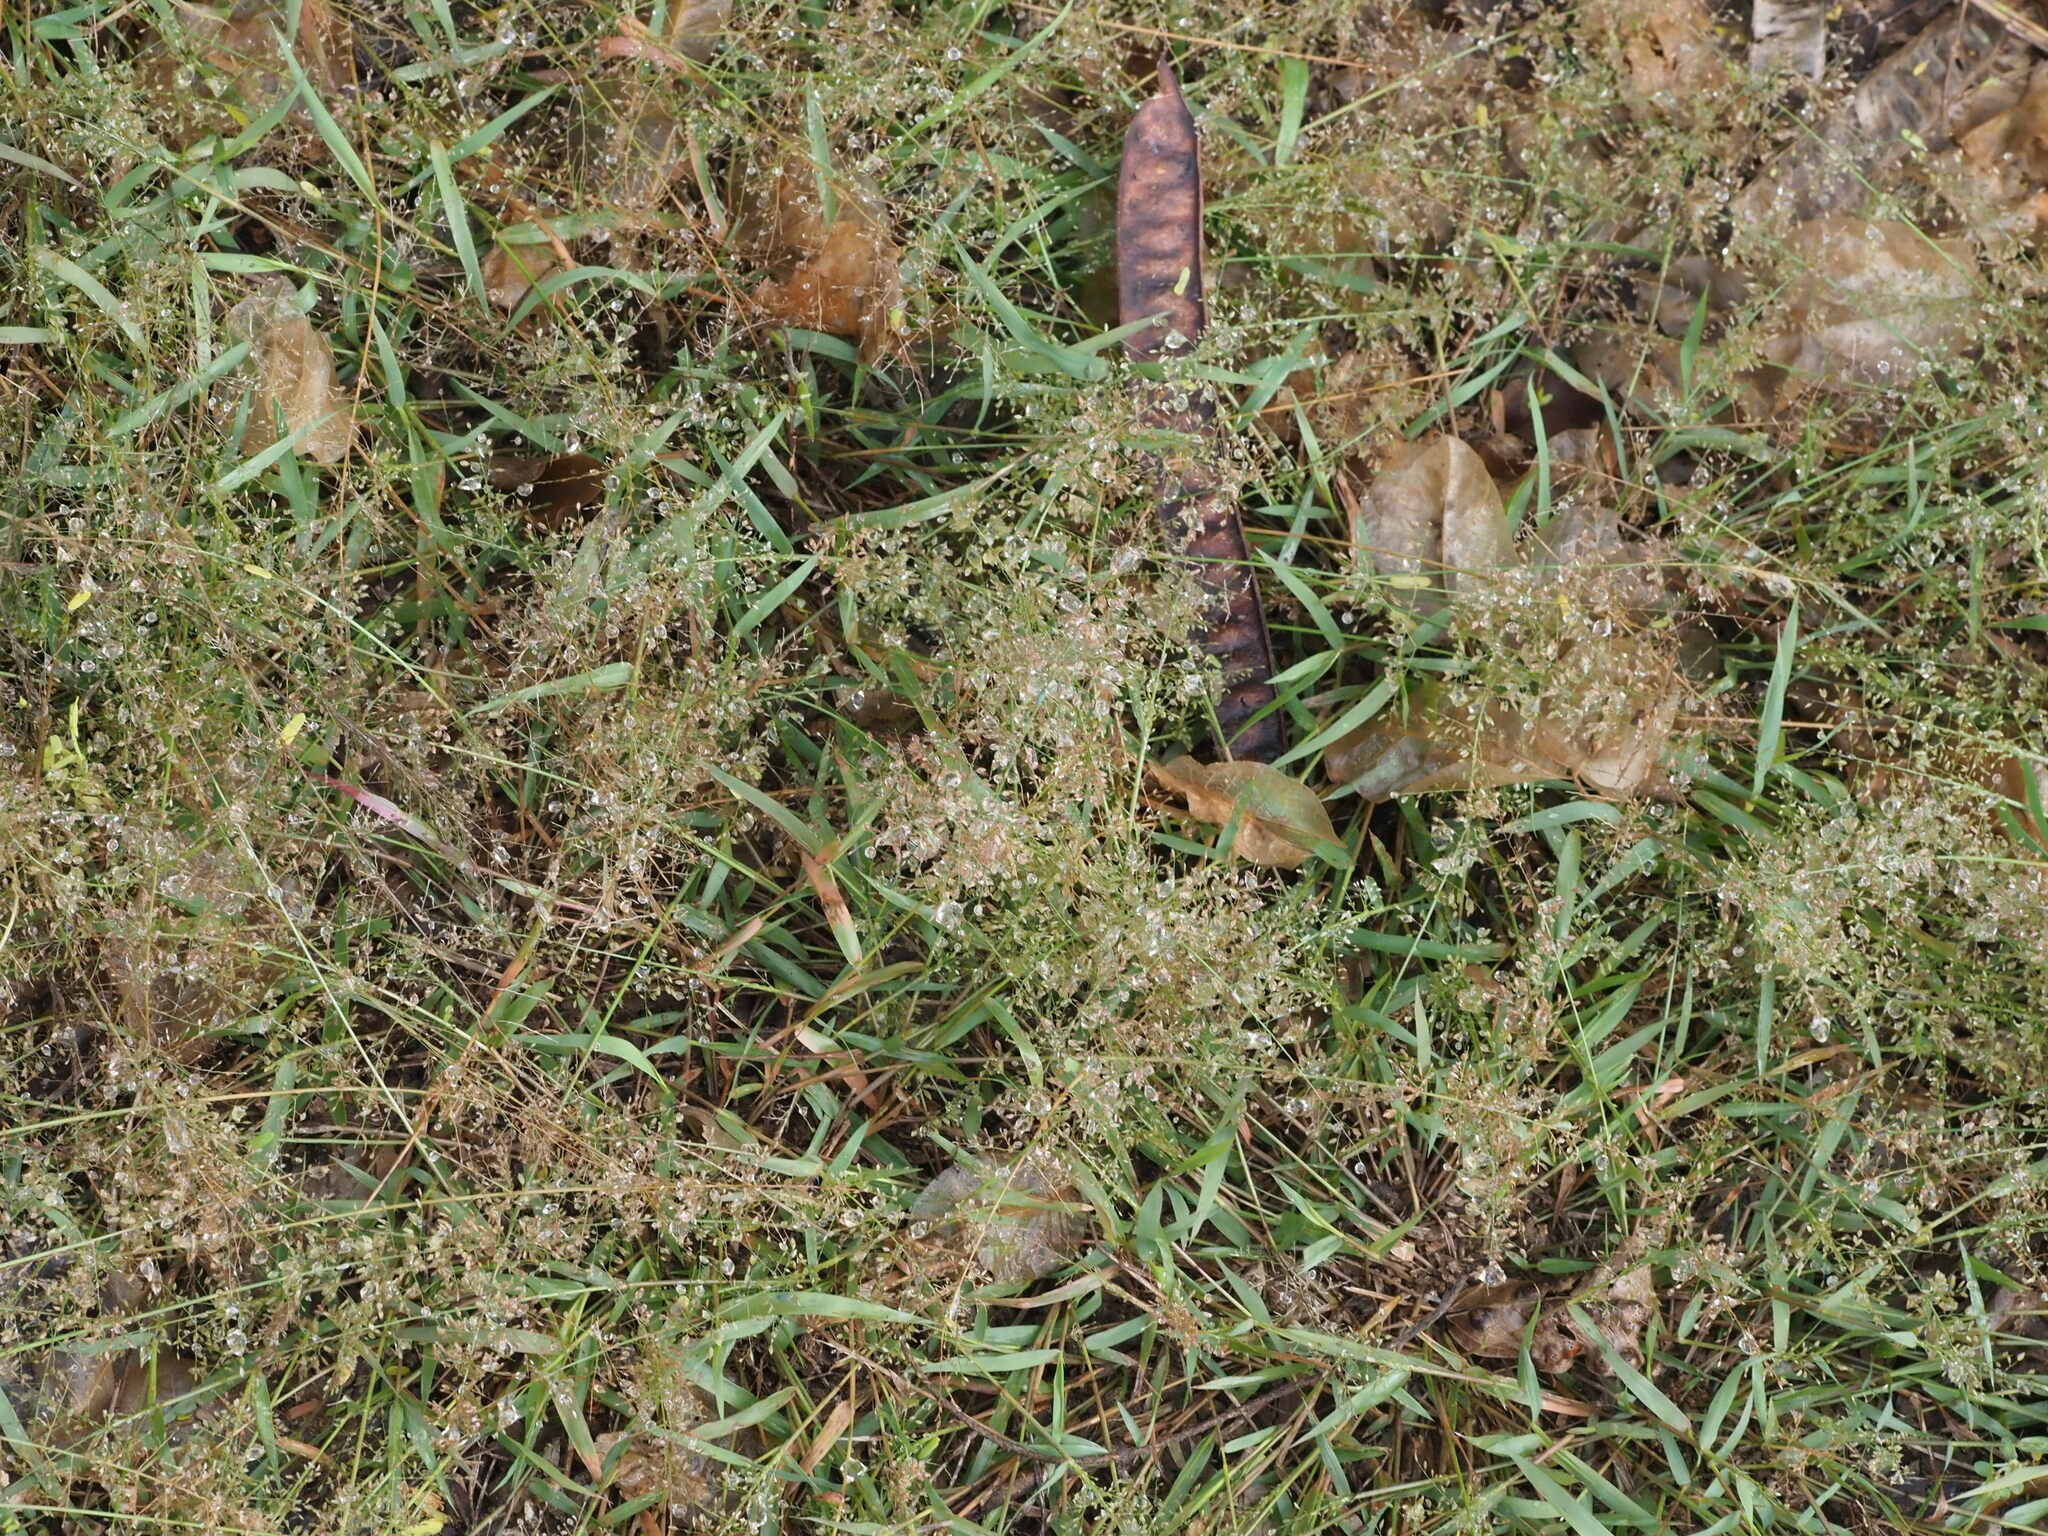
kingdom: Plantae
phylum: Tracheophyta
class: Liliopsida
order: Poales
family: Poaceae
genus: Eragrostis
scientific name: Eragrostis tenella
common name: Japanese lovegrass
